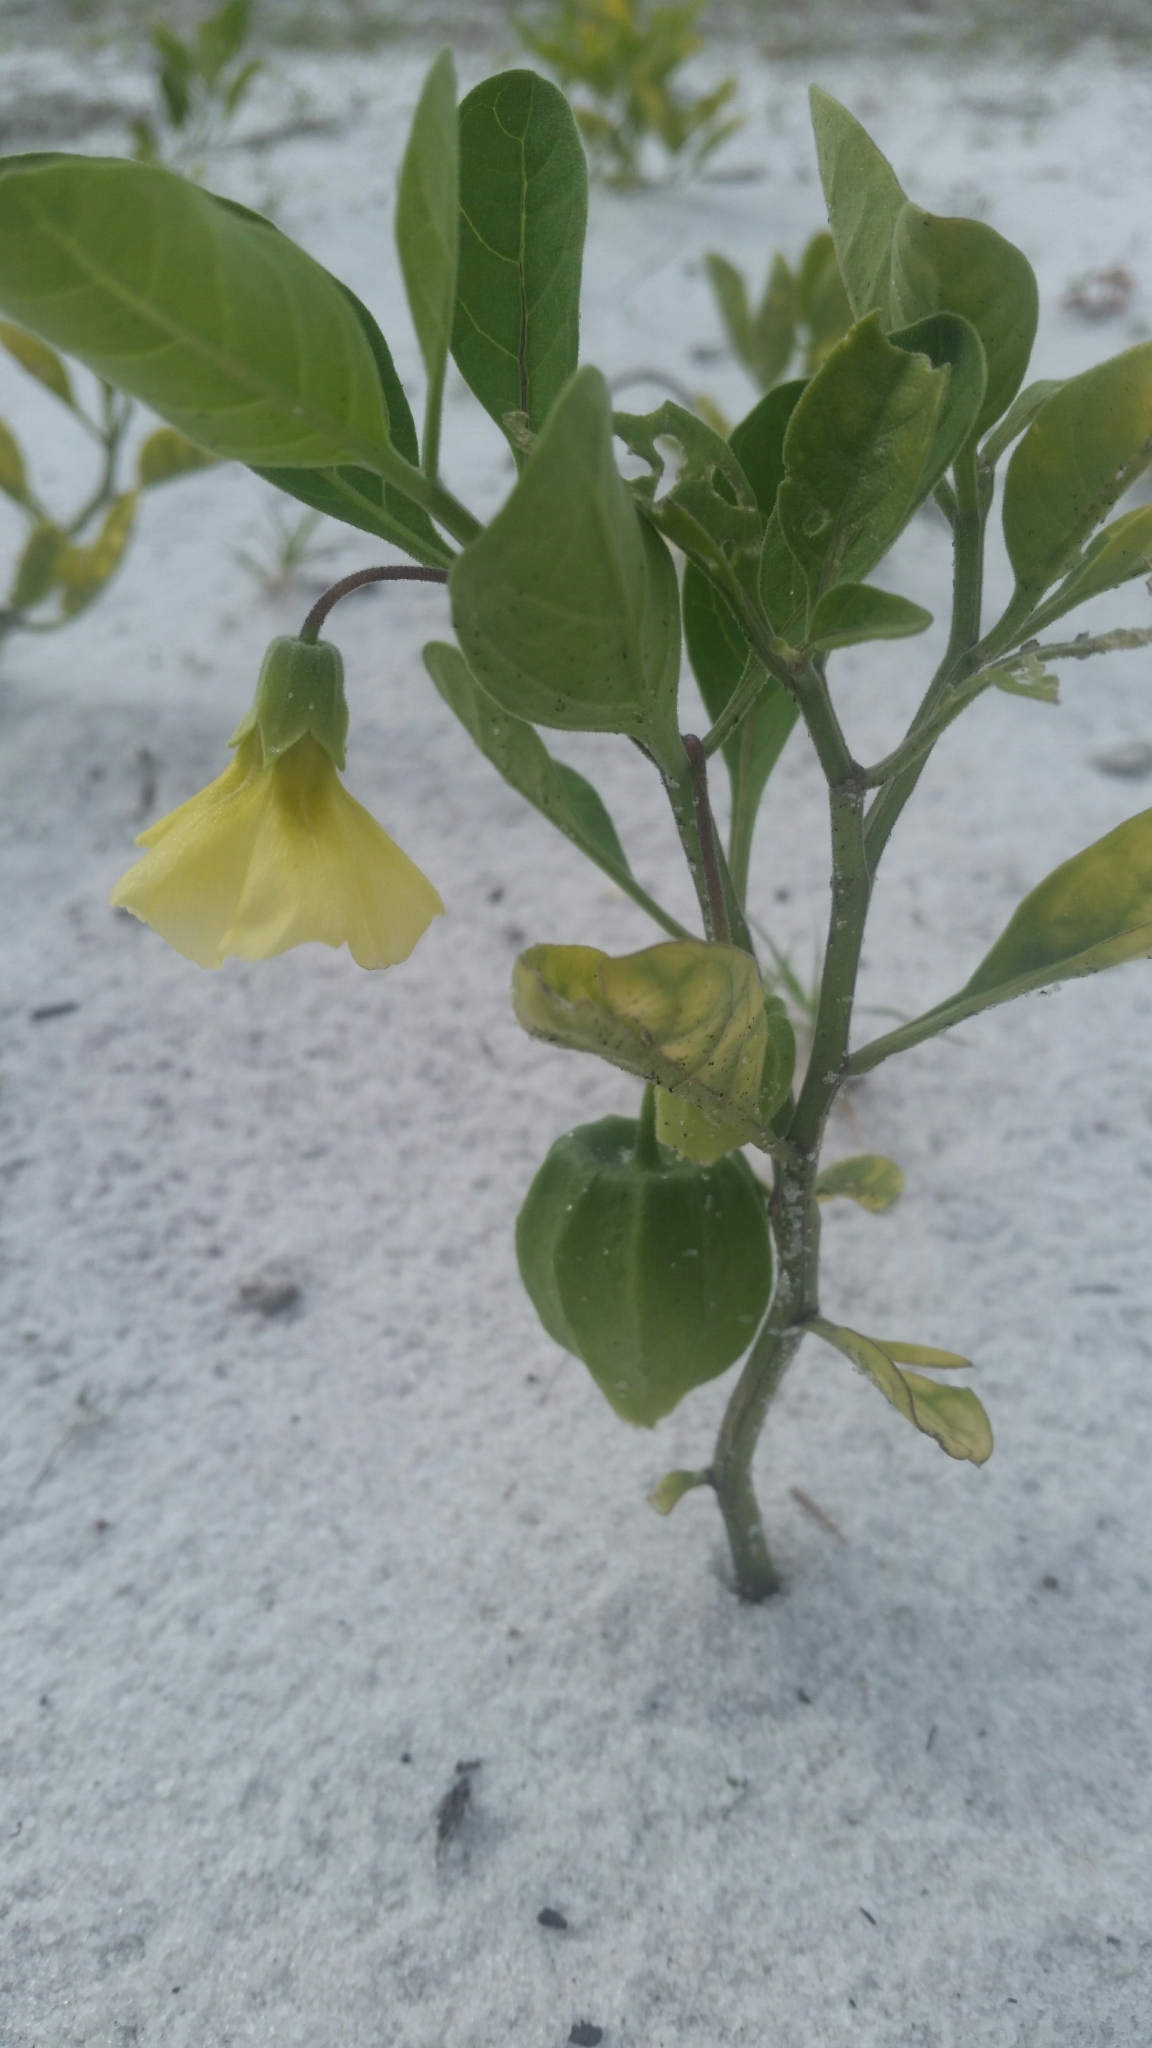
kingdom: Plantae
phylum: Tracheophyta
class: Magnoliopsida
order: Solanales
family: Solanaceae
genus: Physalis
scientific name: Physalis walteri
